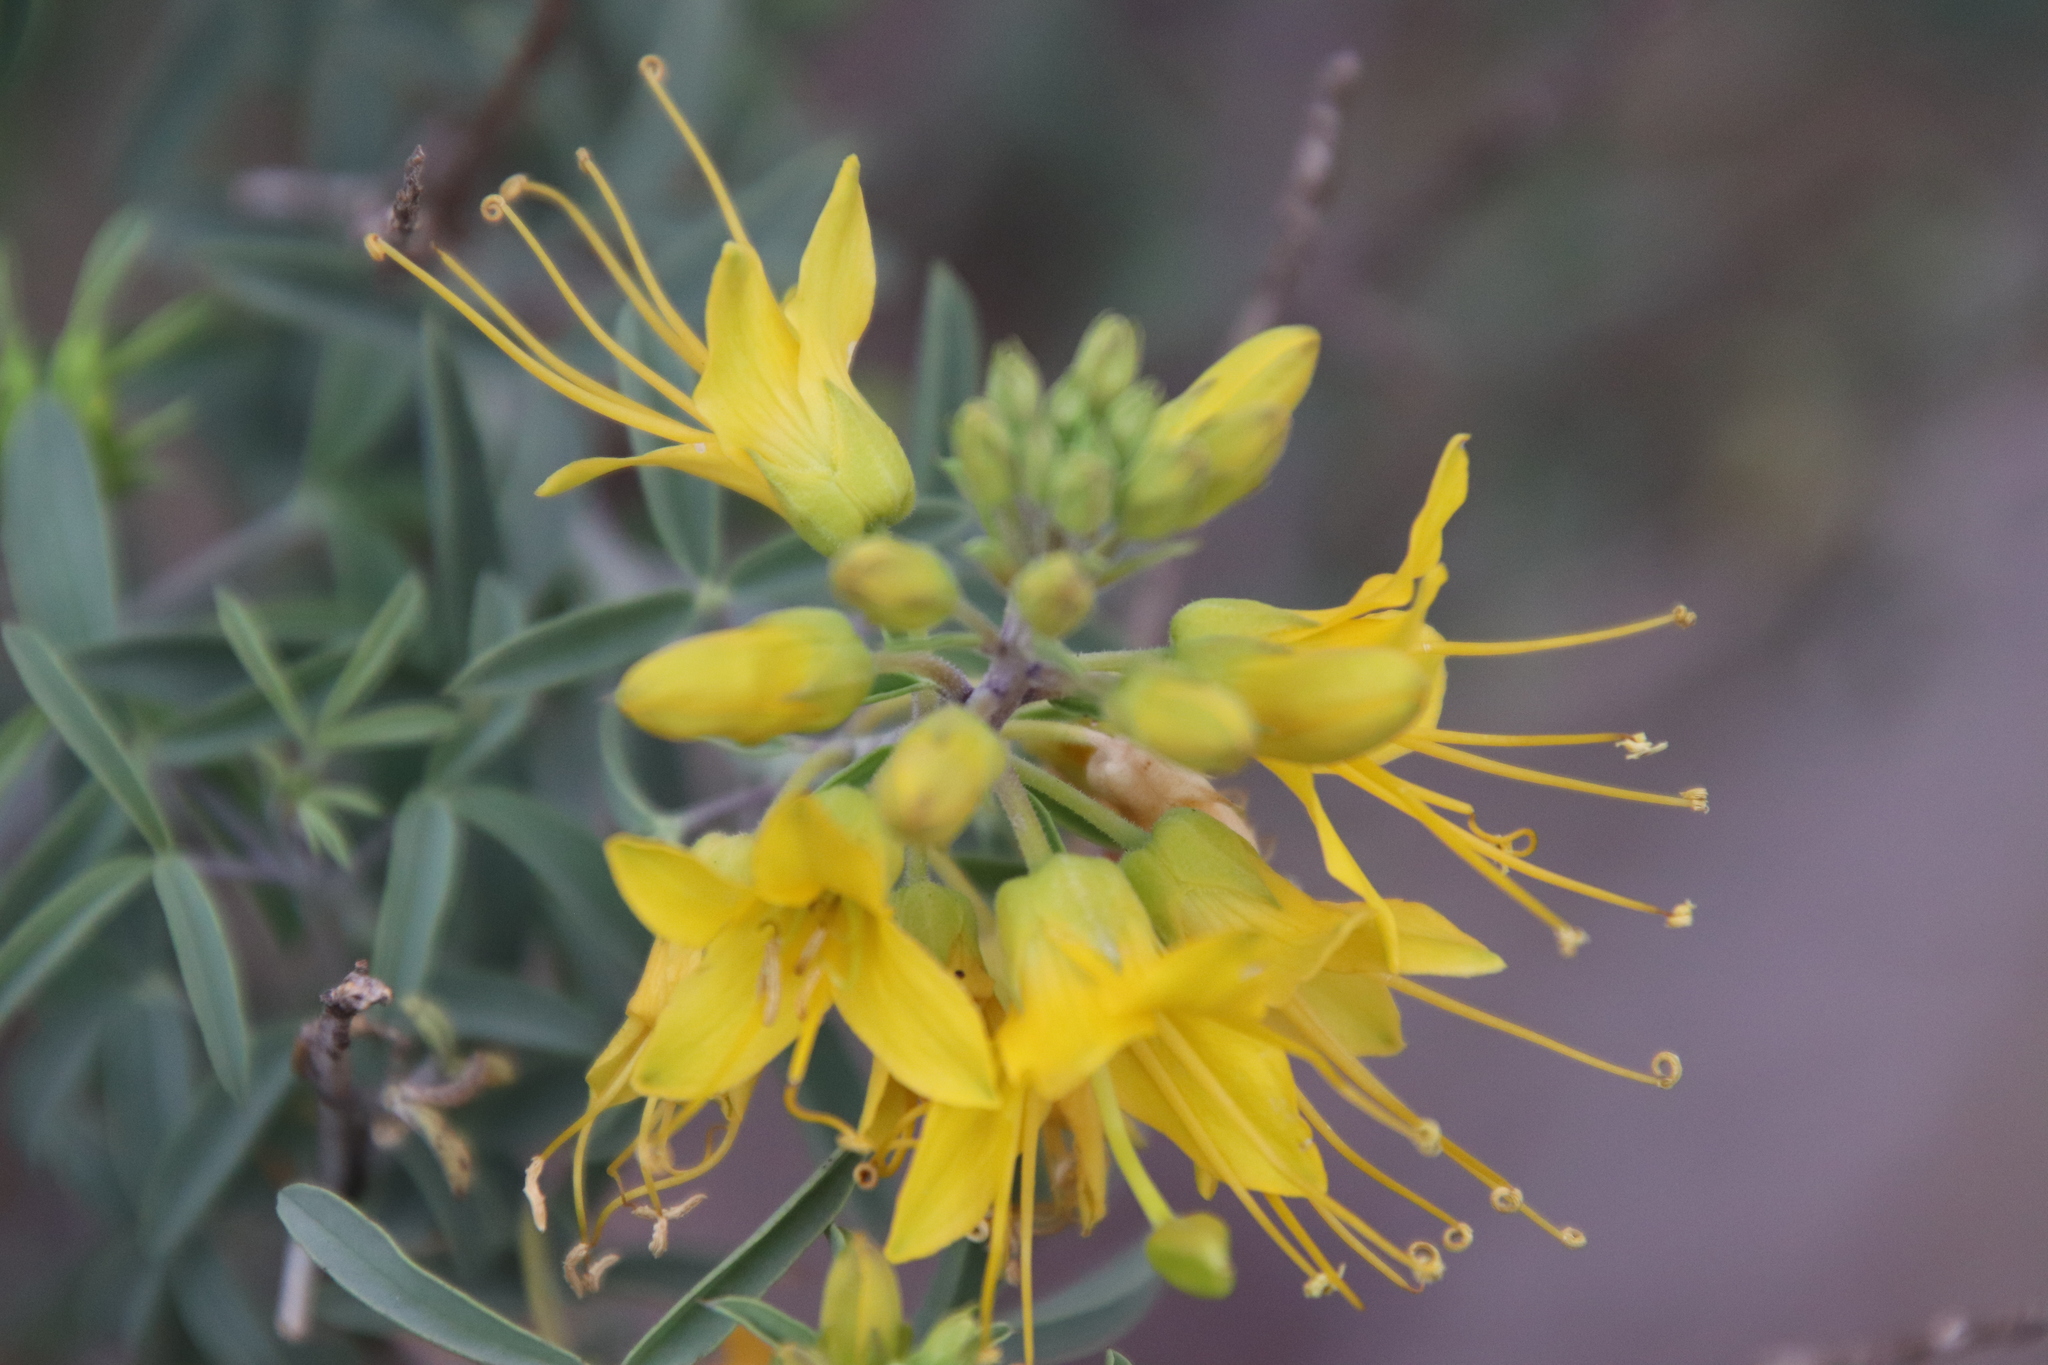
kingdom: Plantae
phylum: Tracheophyta
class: Magnoliopsida
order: Brassicales
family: Cleomaceae
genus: Cleomella
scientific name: Cleomella arborea
